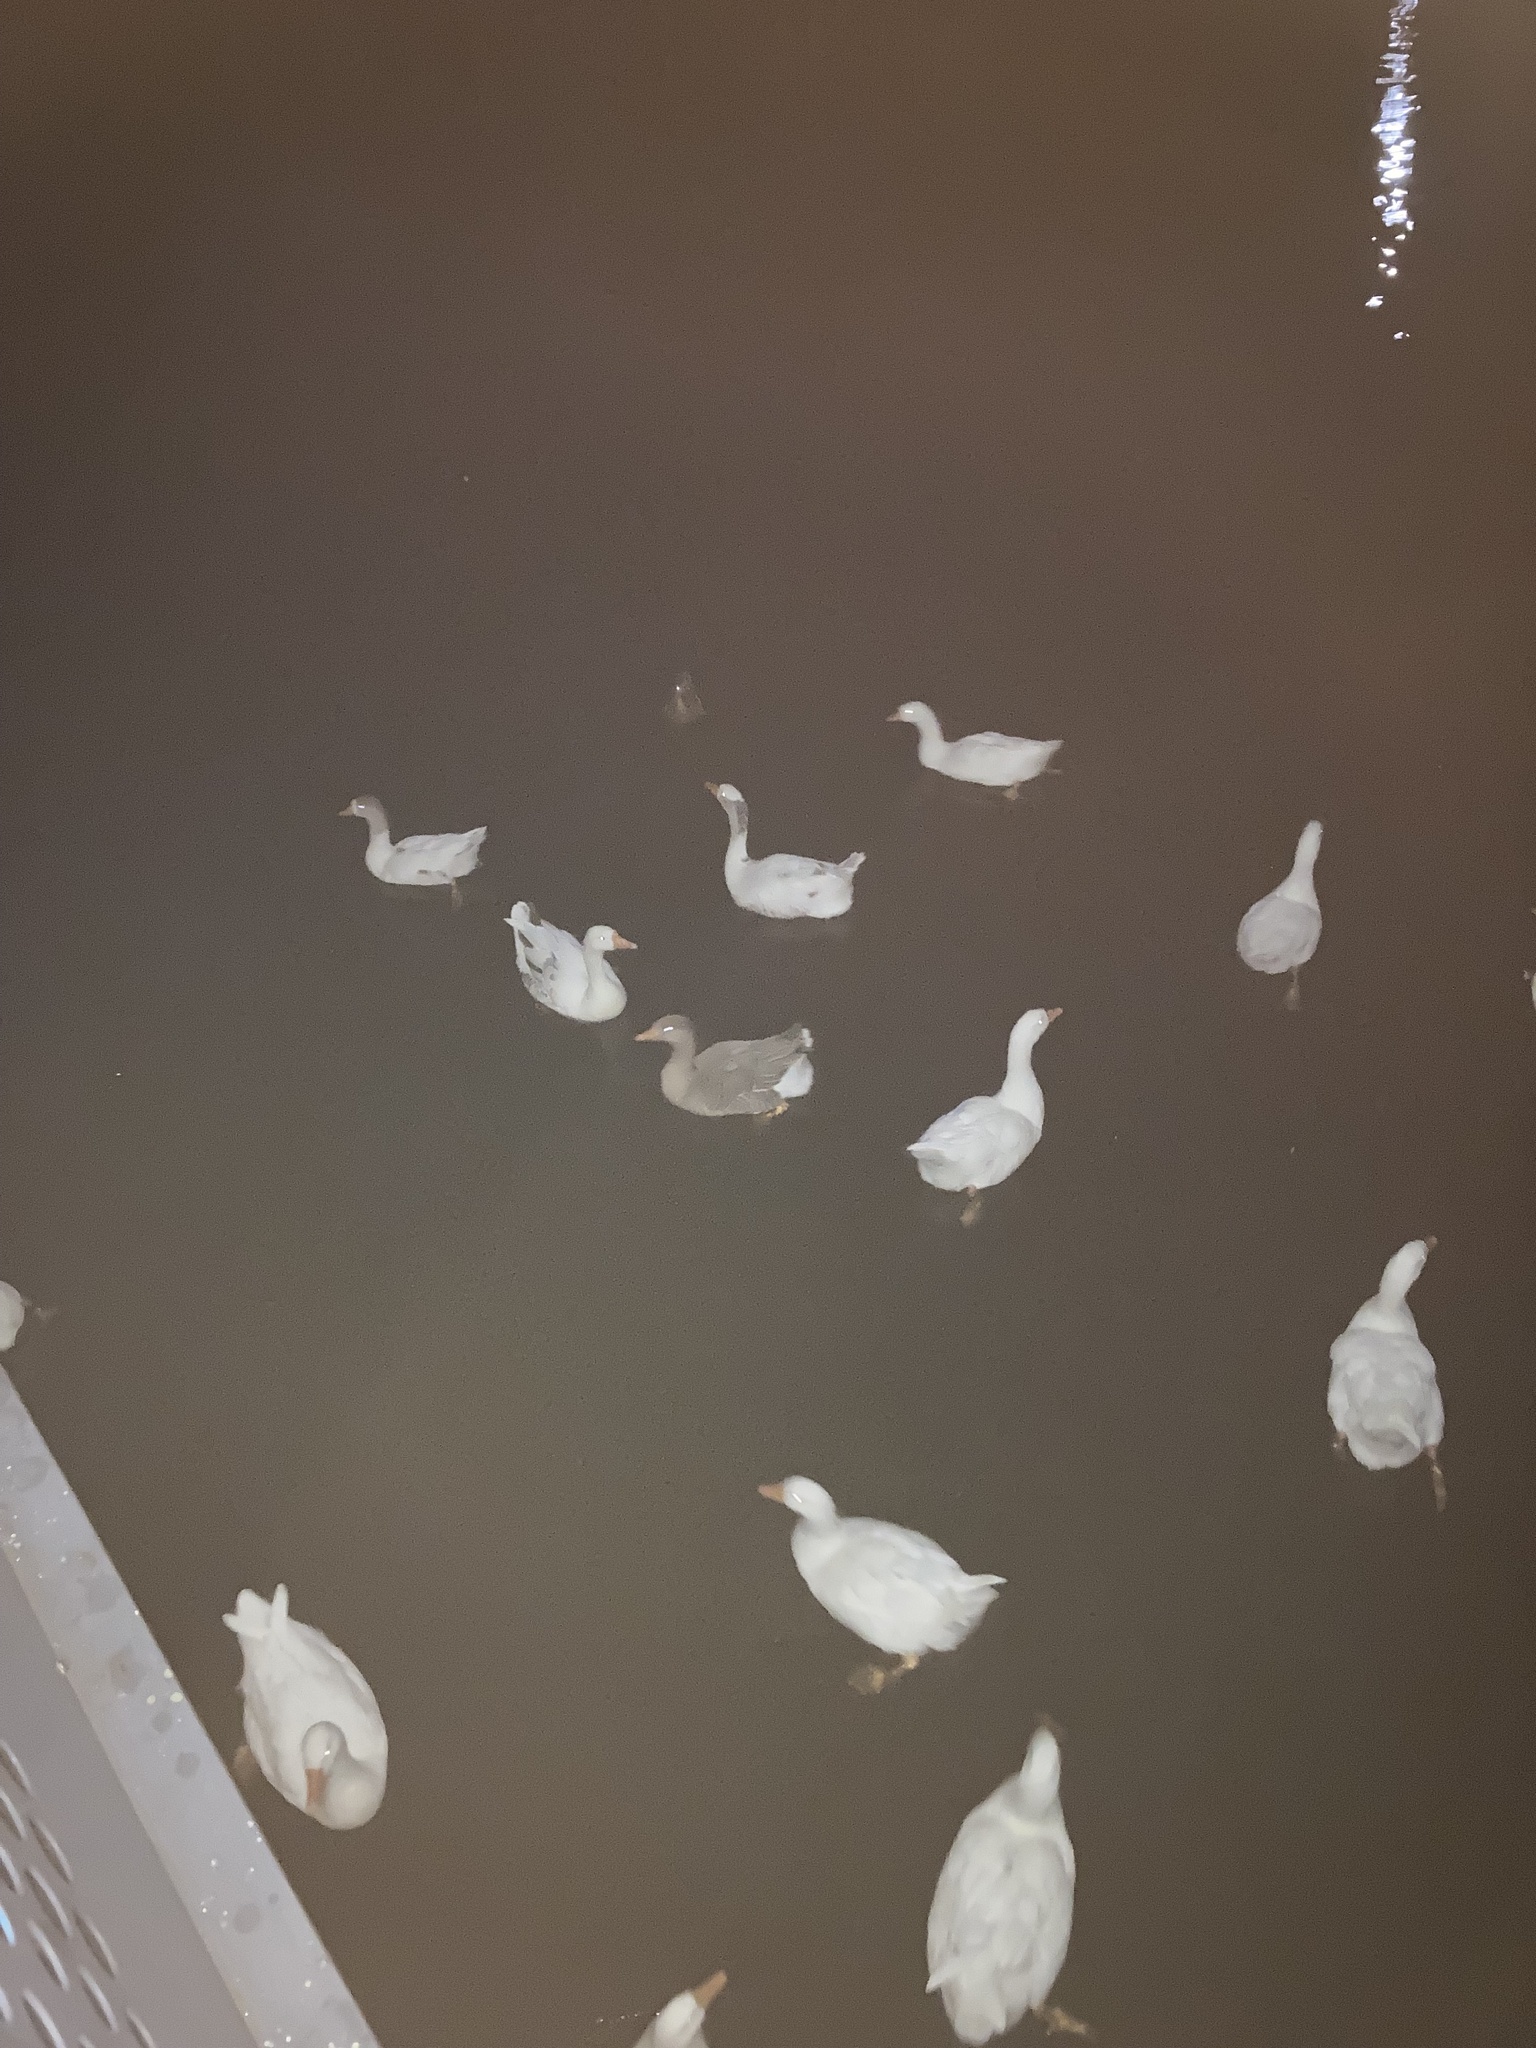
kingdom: Animalia
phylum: Chordata
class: Aves
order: Anseriformes
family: Anatidae
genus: Anser
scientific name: Anser
